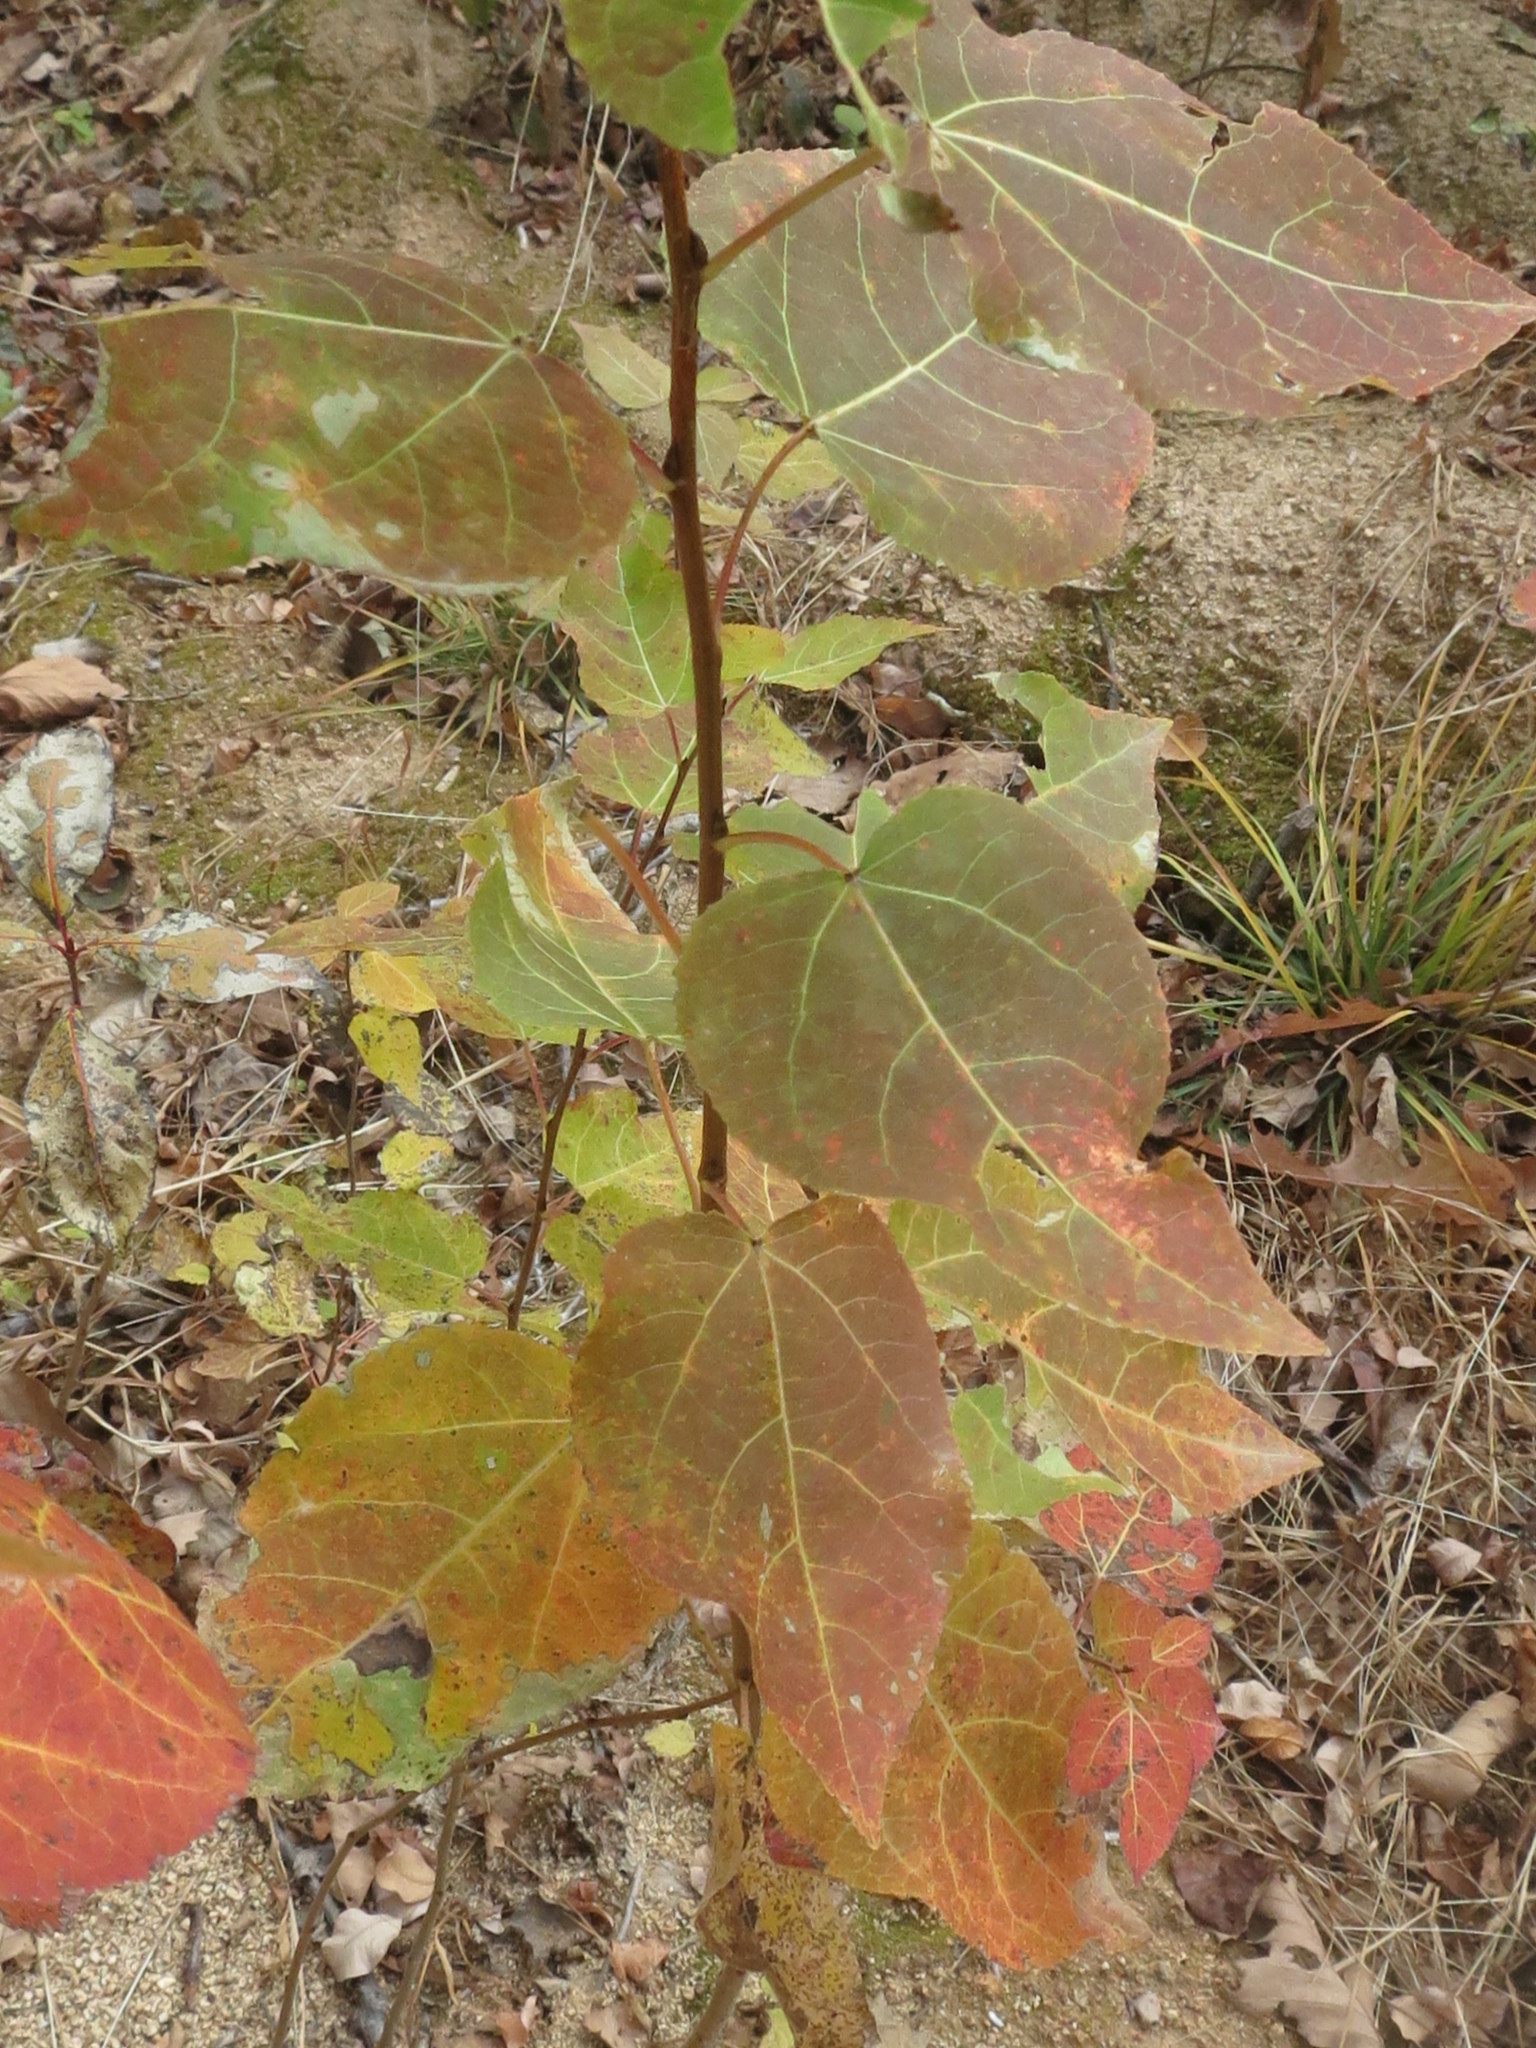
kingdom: Plantae
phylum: Tracheophyta
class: Magnoliopsida
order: Malpighiales
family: Salicaceae
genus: Populus
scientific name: Populus tremula
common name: European aspen
